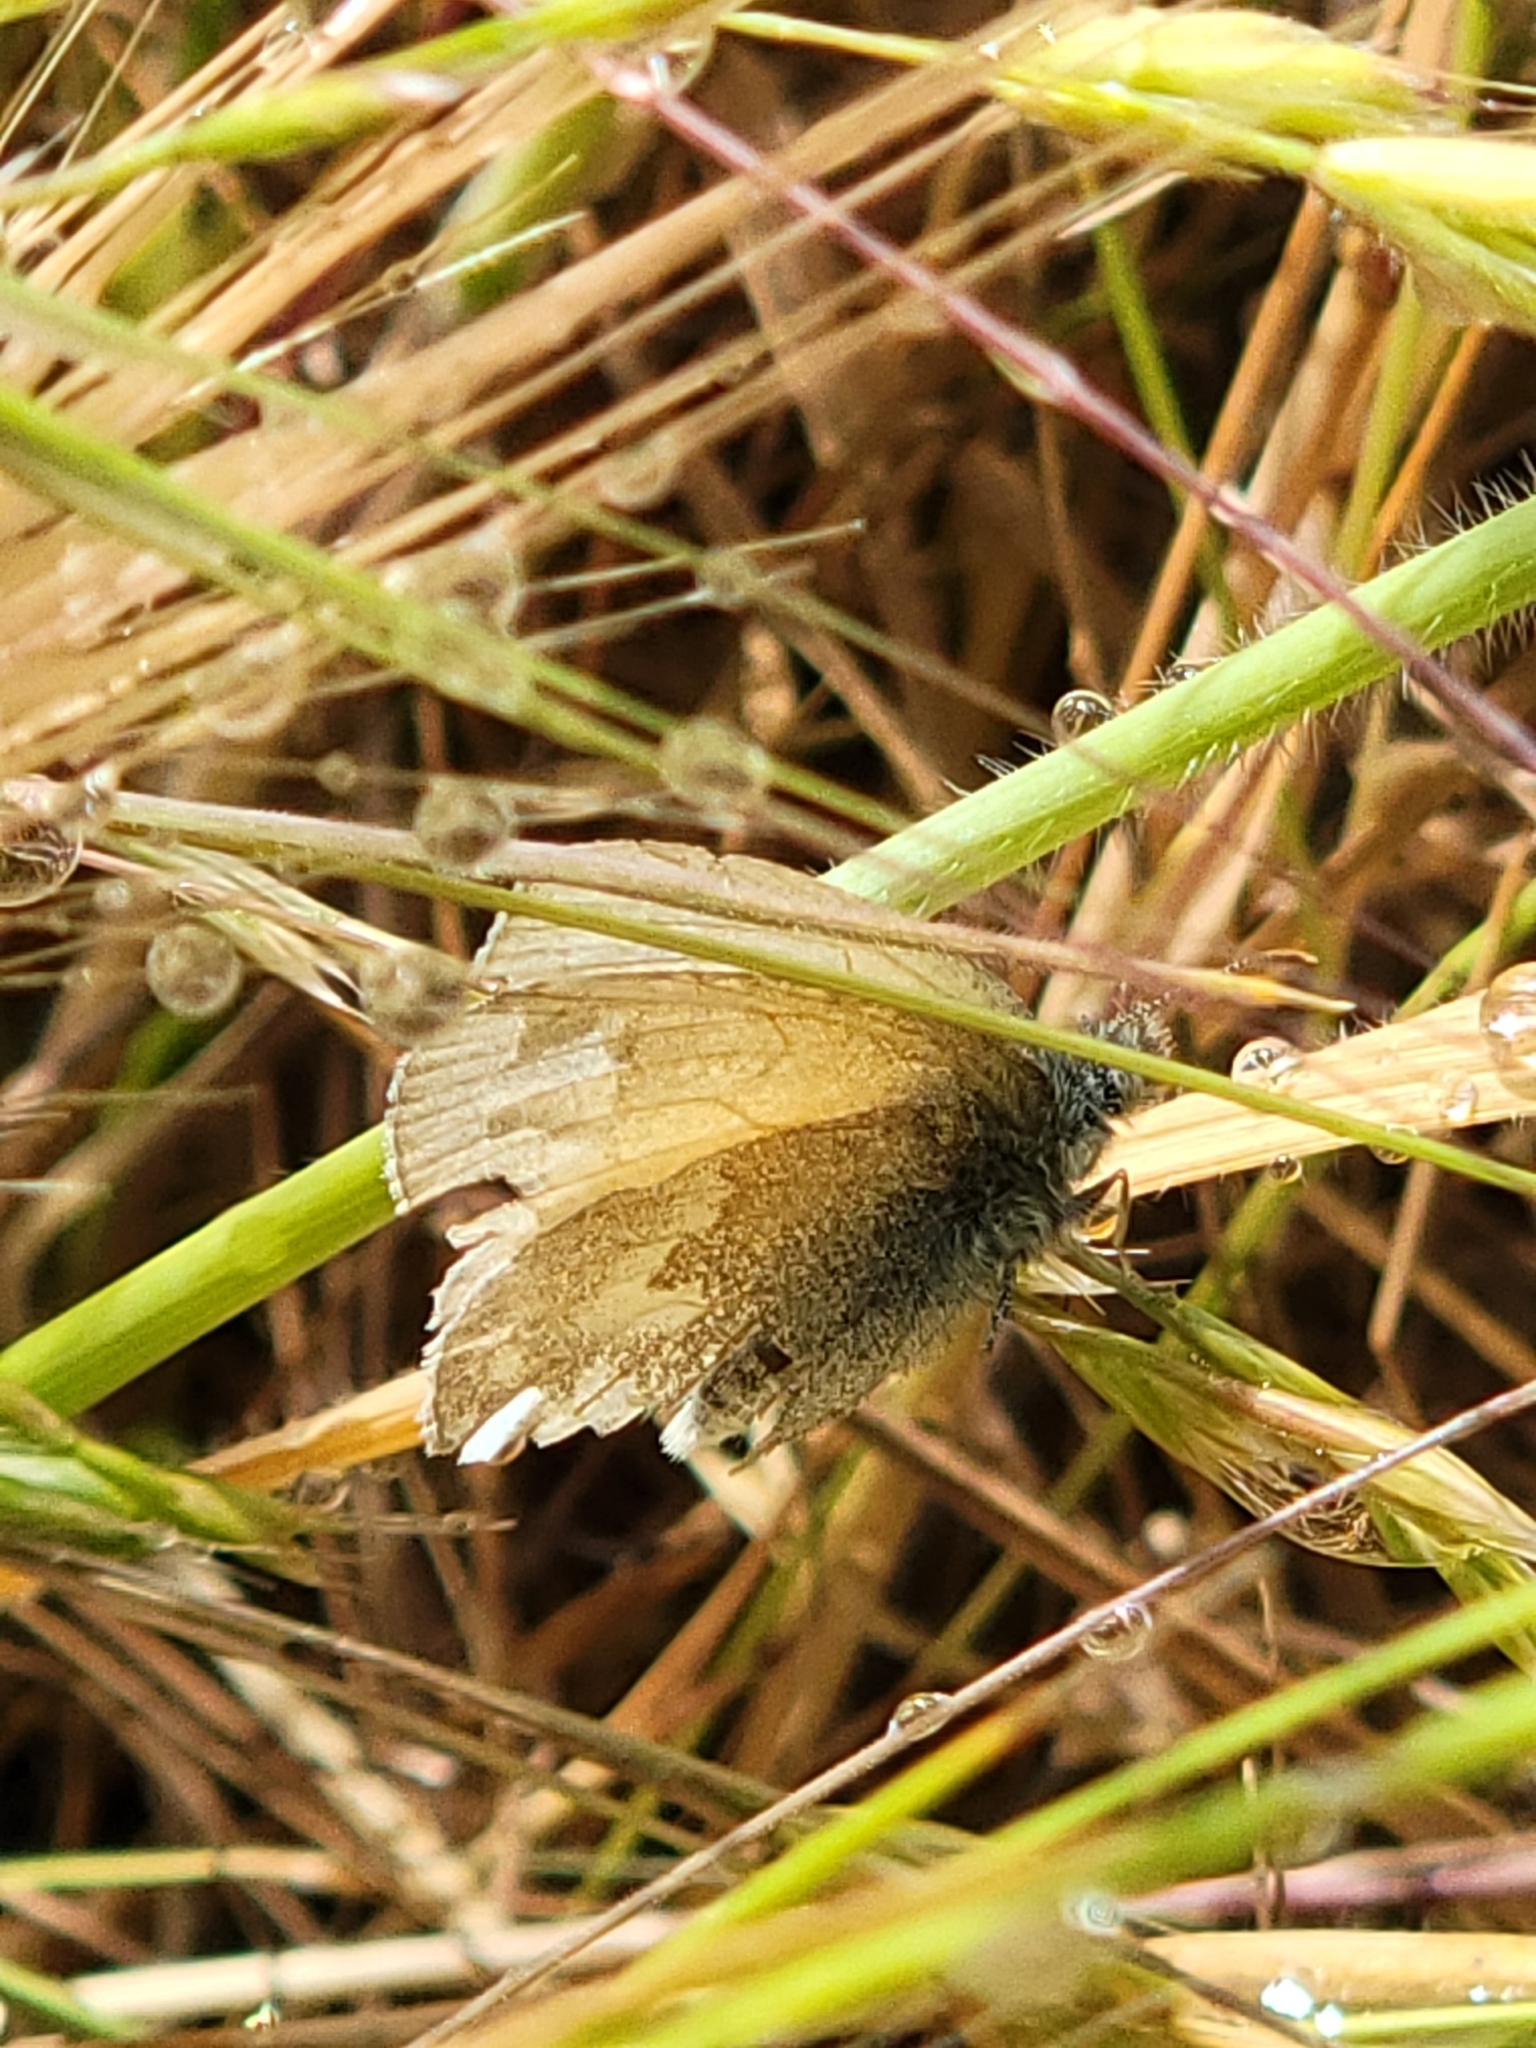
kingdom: Animalia
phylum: Arthropoda
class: Insecta
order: Lepidoptera
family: Nymphalidae
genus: Coenonympha
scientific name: Coenonympha california
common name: Common ringlet
